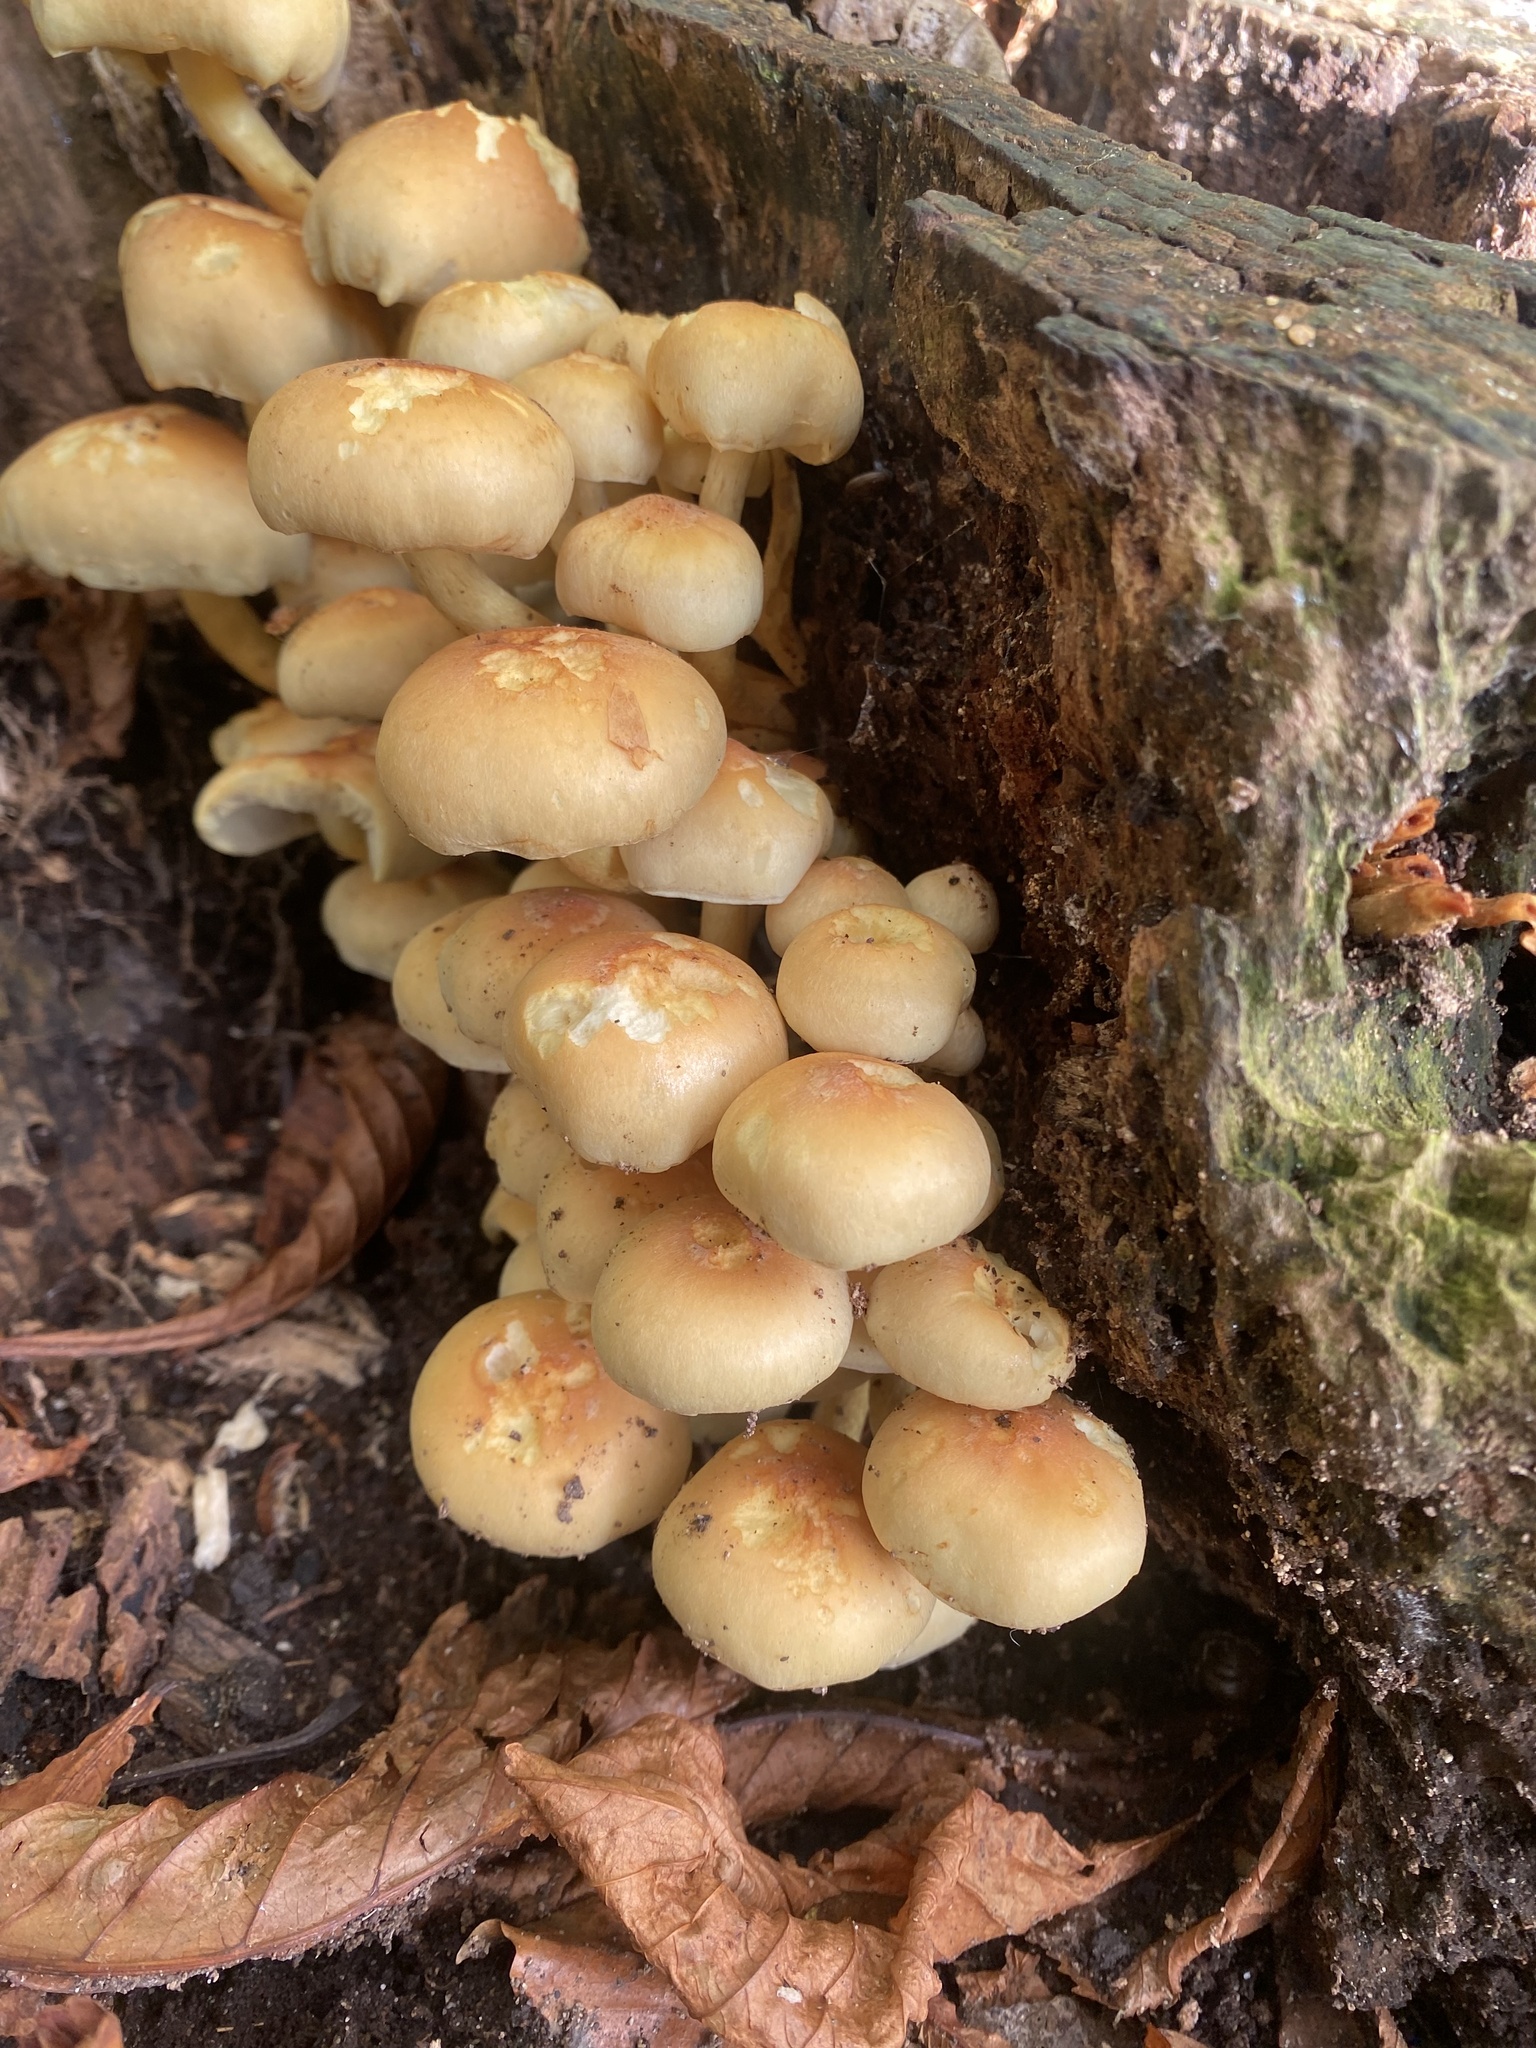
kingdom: Fungi
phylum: Basidiomycota
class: Agaricomycetes
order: Agaricales
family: Strophariaceae
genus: Hypholoma
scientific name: Hypholoma fasciculare
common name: Sulphur tuft
